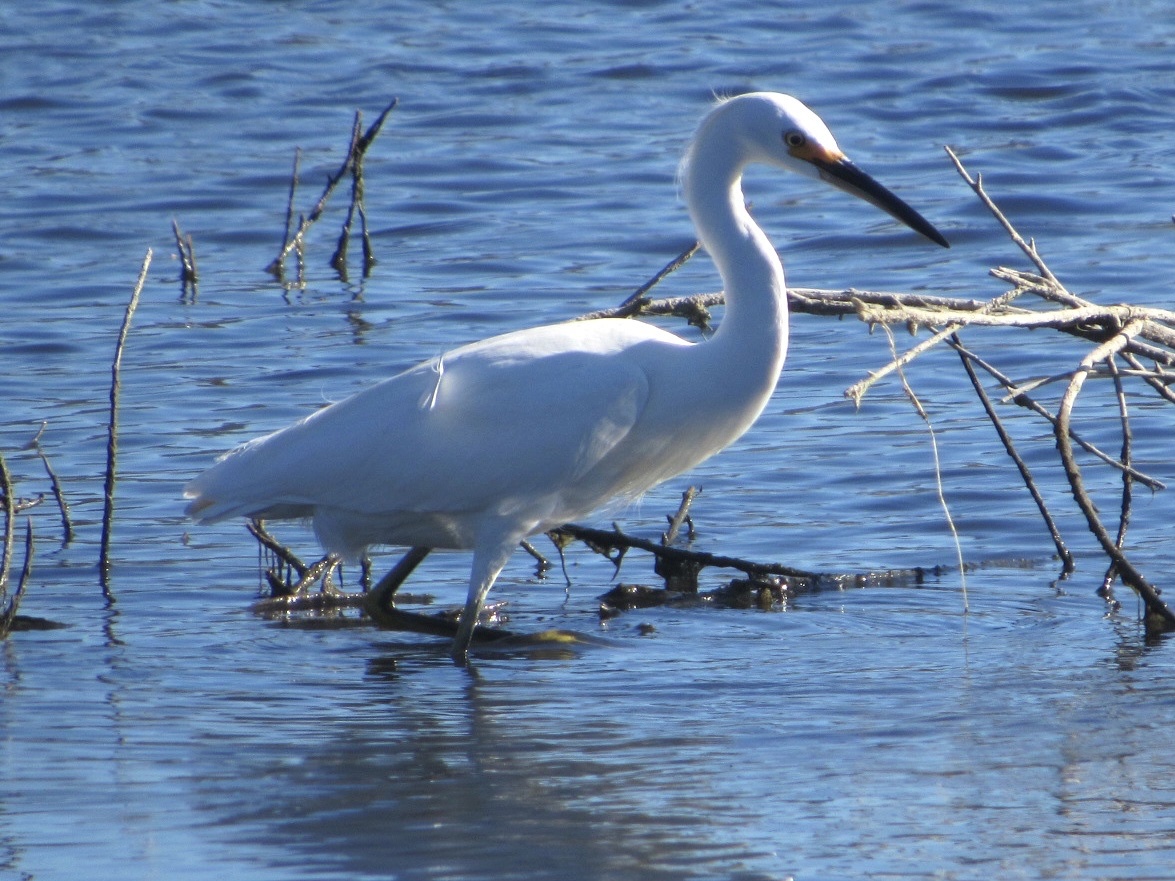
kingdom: Animalia
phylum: Chordata
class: Aves
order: Pelecaniformes
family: Ardeidae
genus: Egretta
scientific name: Egretta thula
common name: Snowy egret
